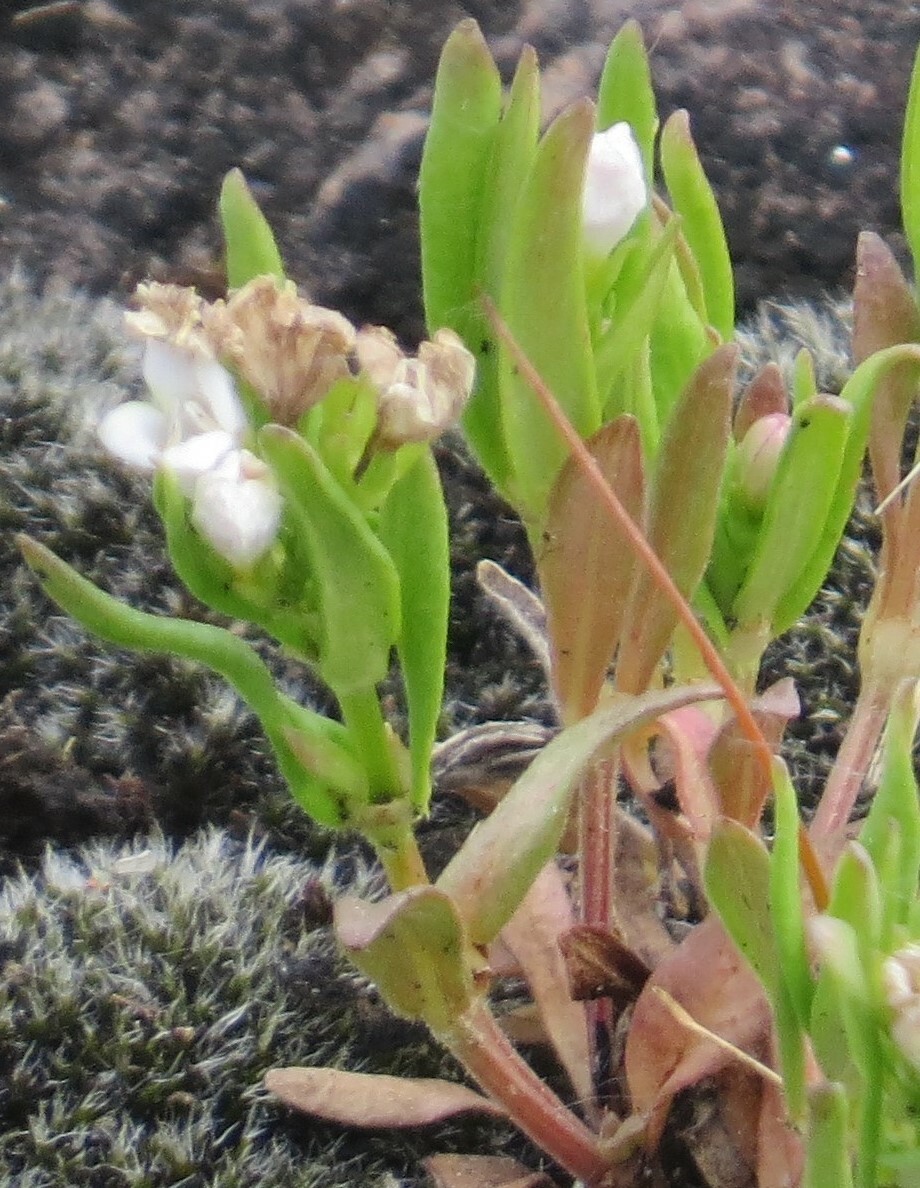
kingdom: Plantae
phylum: Tracheophyta
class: Magnoliopsida
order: Gentianales
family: Rubiaceae
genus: Houstonia
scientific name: Houstonia longifolia
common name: Long-leaved bluets
